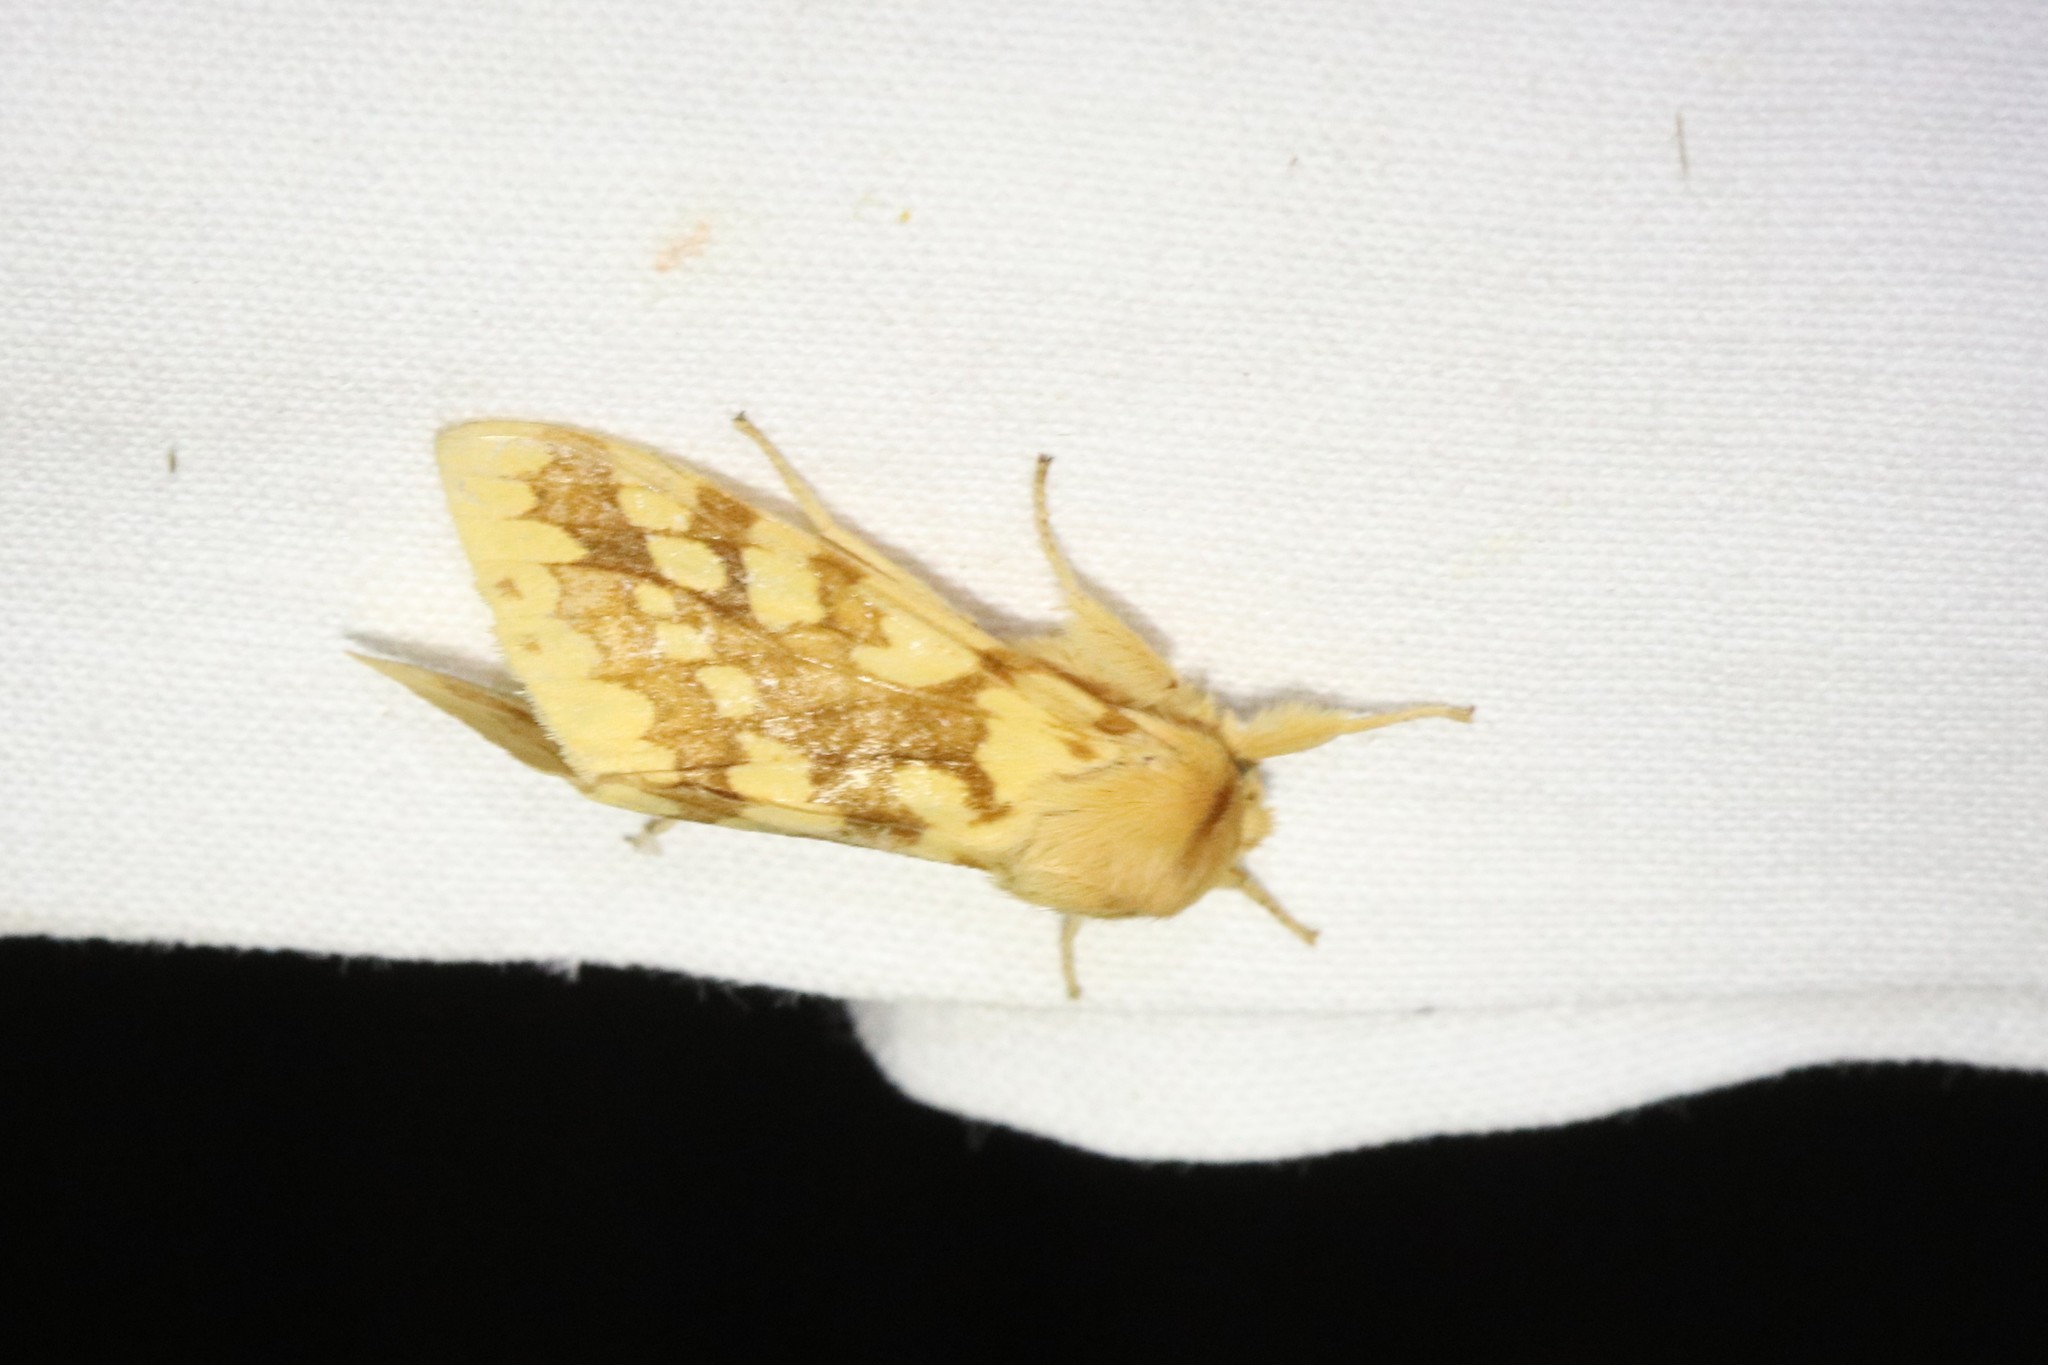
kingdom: Animalia
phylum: Arthropoda
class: Insecta
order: Lepidoptera
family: Erebidae
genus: Lophocampa
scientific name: Lophocampa maculata
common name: Spotted tussock moth
